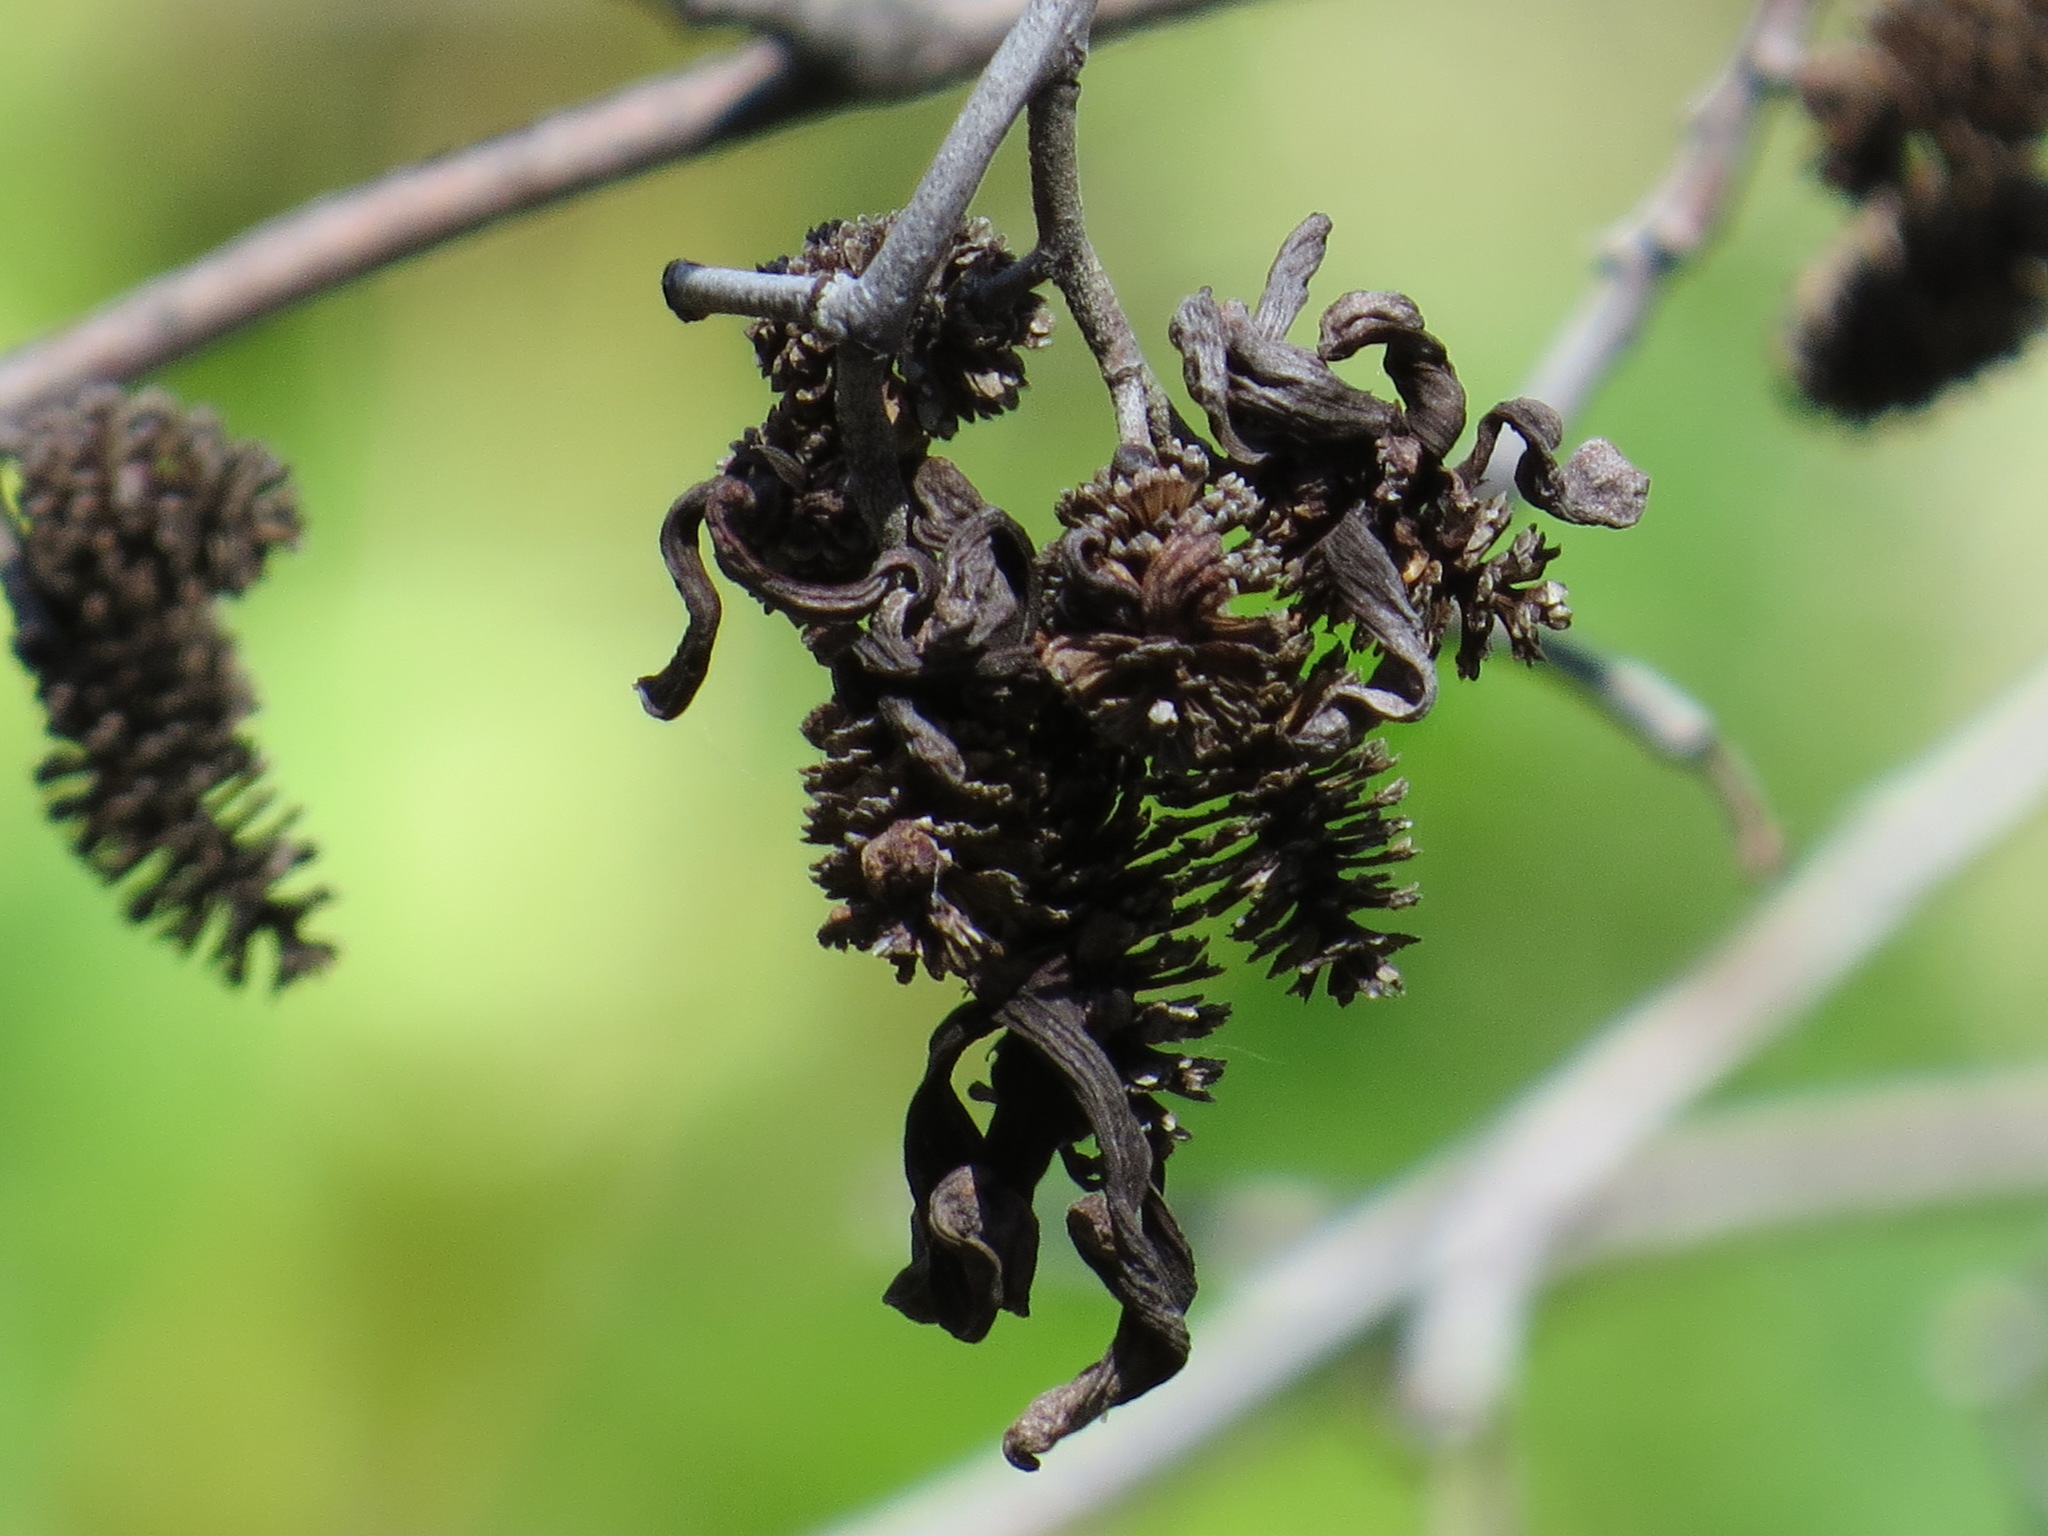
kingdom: Fungi
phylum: Ascomycota
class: Taphrinomycetes
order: Taphrinales
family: Taphrinaceae
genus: Taphrina
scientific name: Taphrina occidentalis
